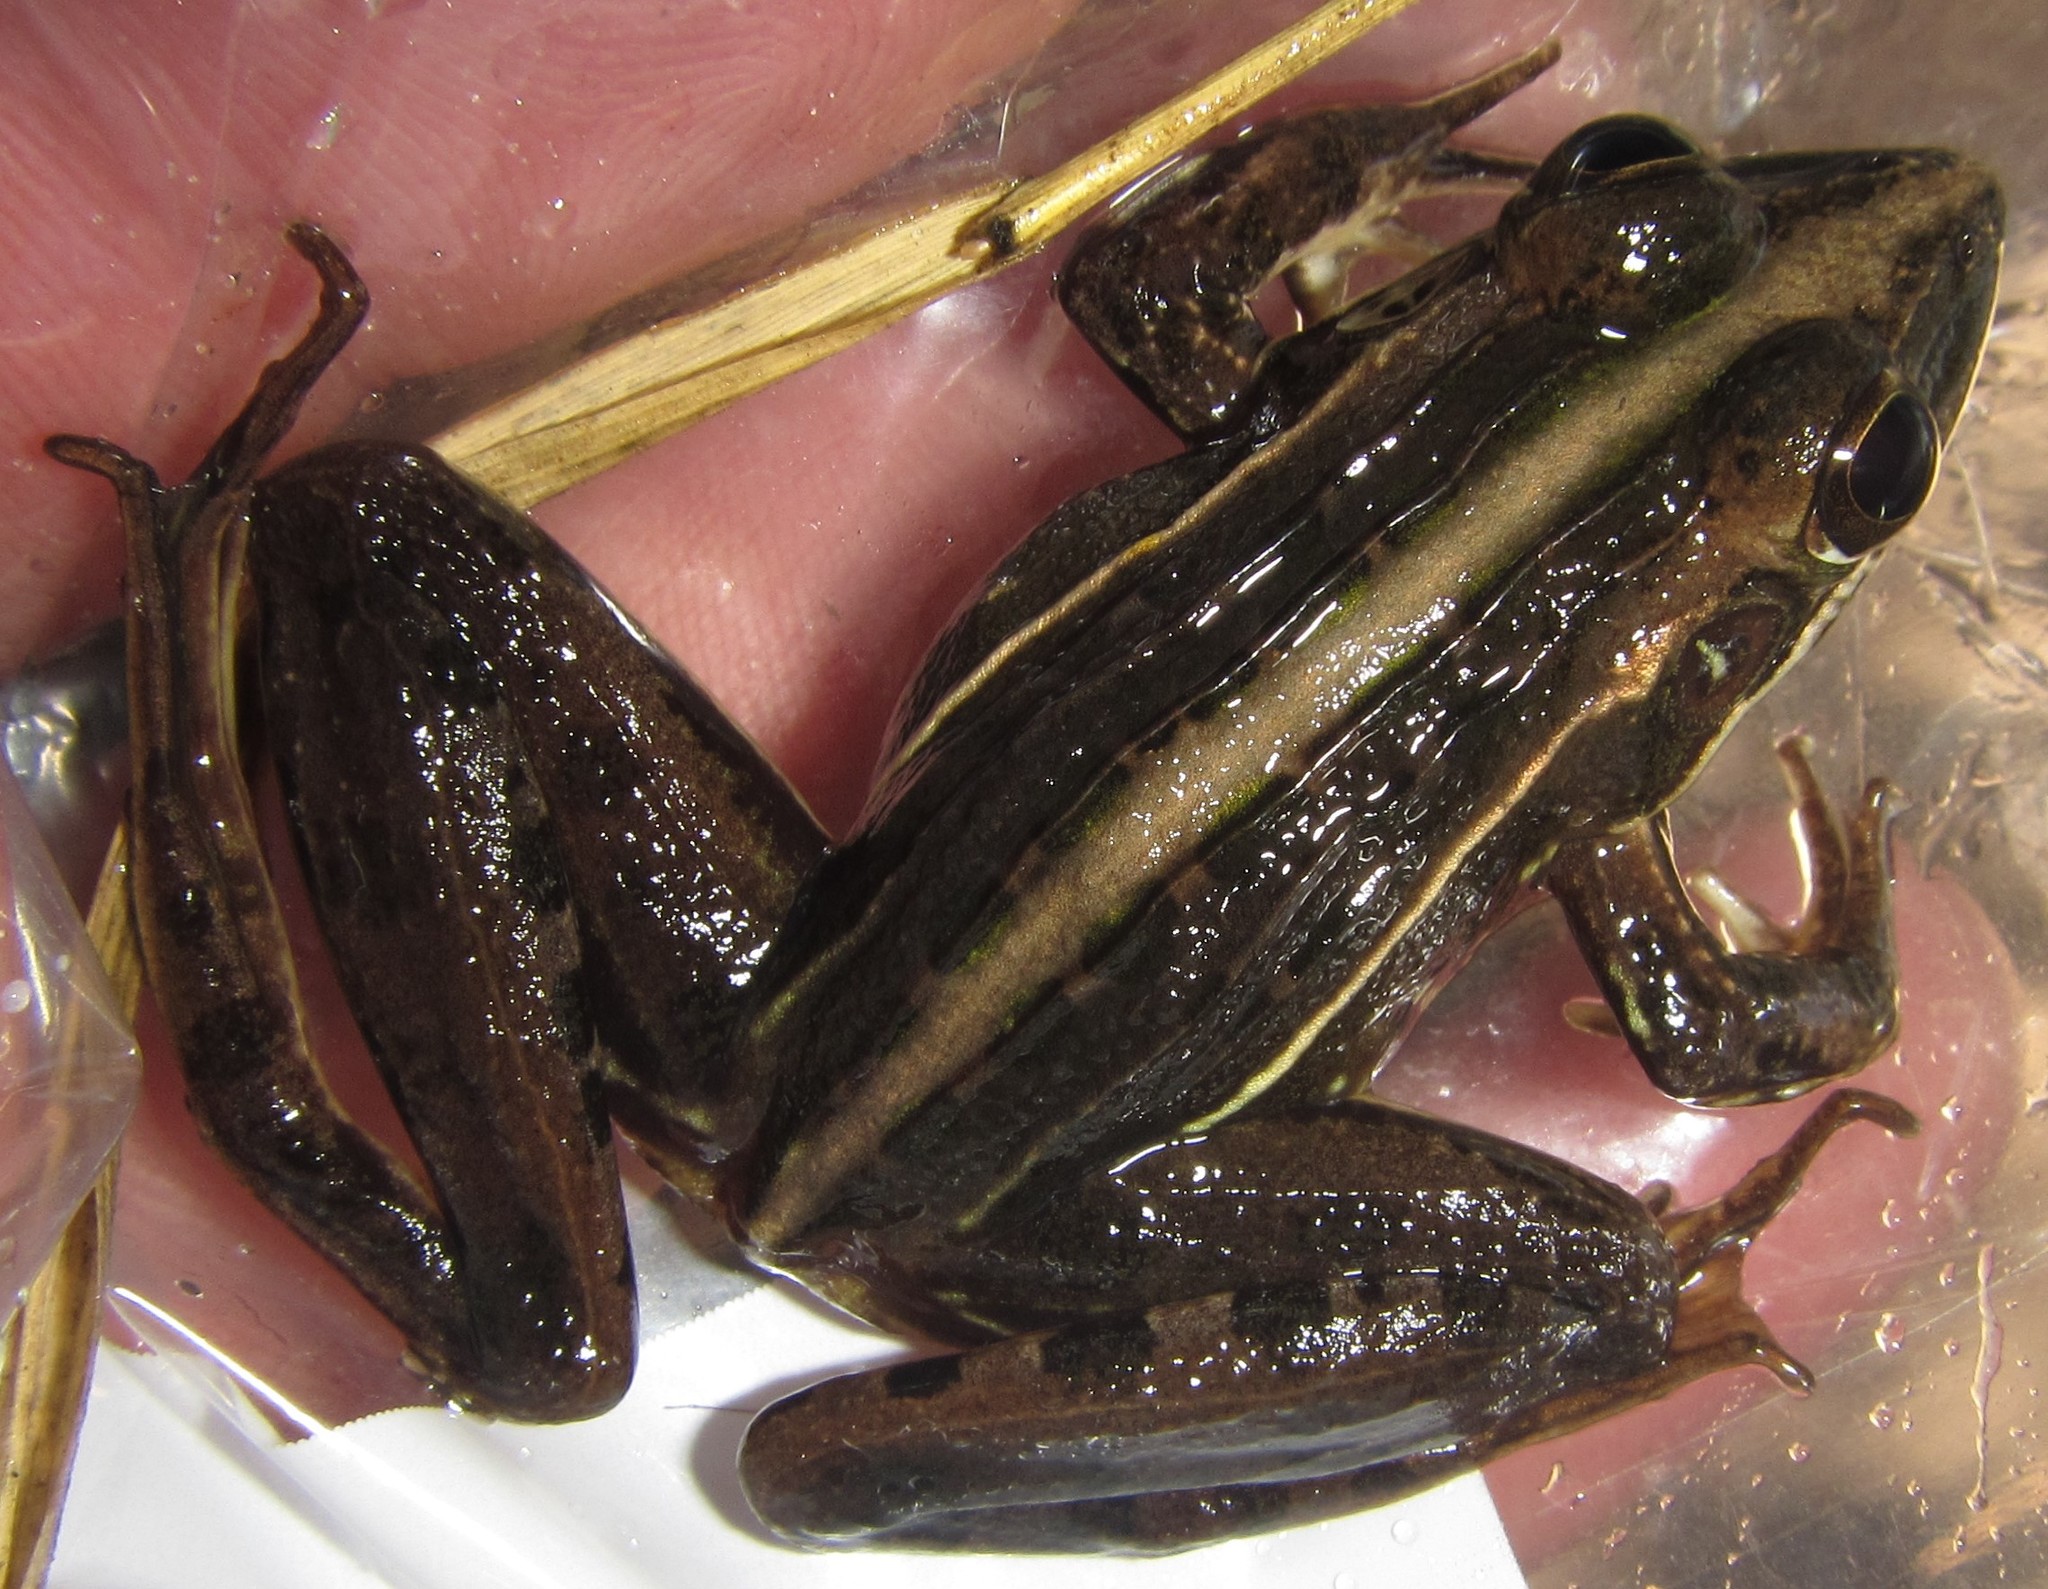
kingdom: Animalia
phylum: Chordata
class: Amphibia
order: Anura
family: Ptychadenidae
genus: Ptychadena
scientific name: Ptychadena subpunctata
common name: Bocage's grassland frog
